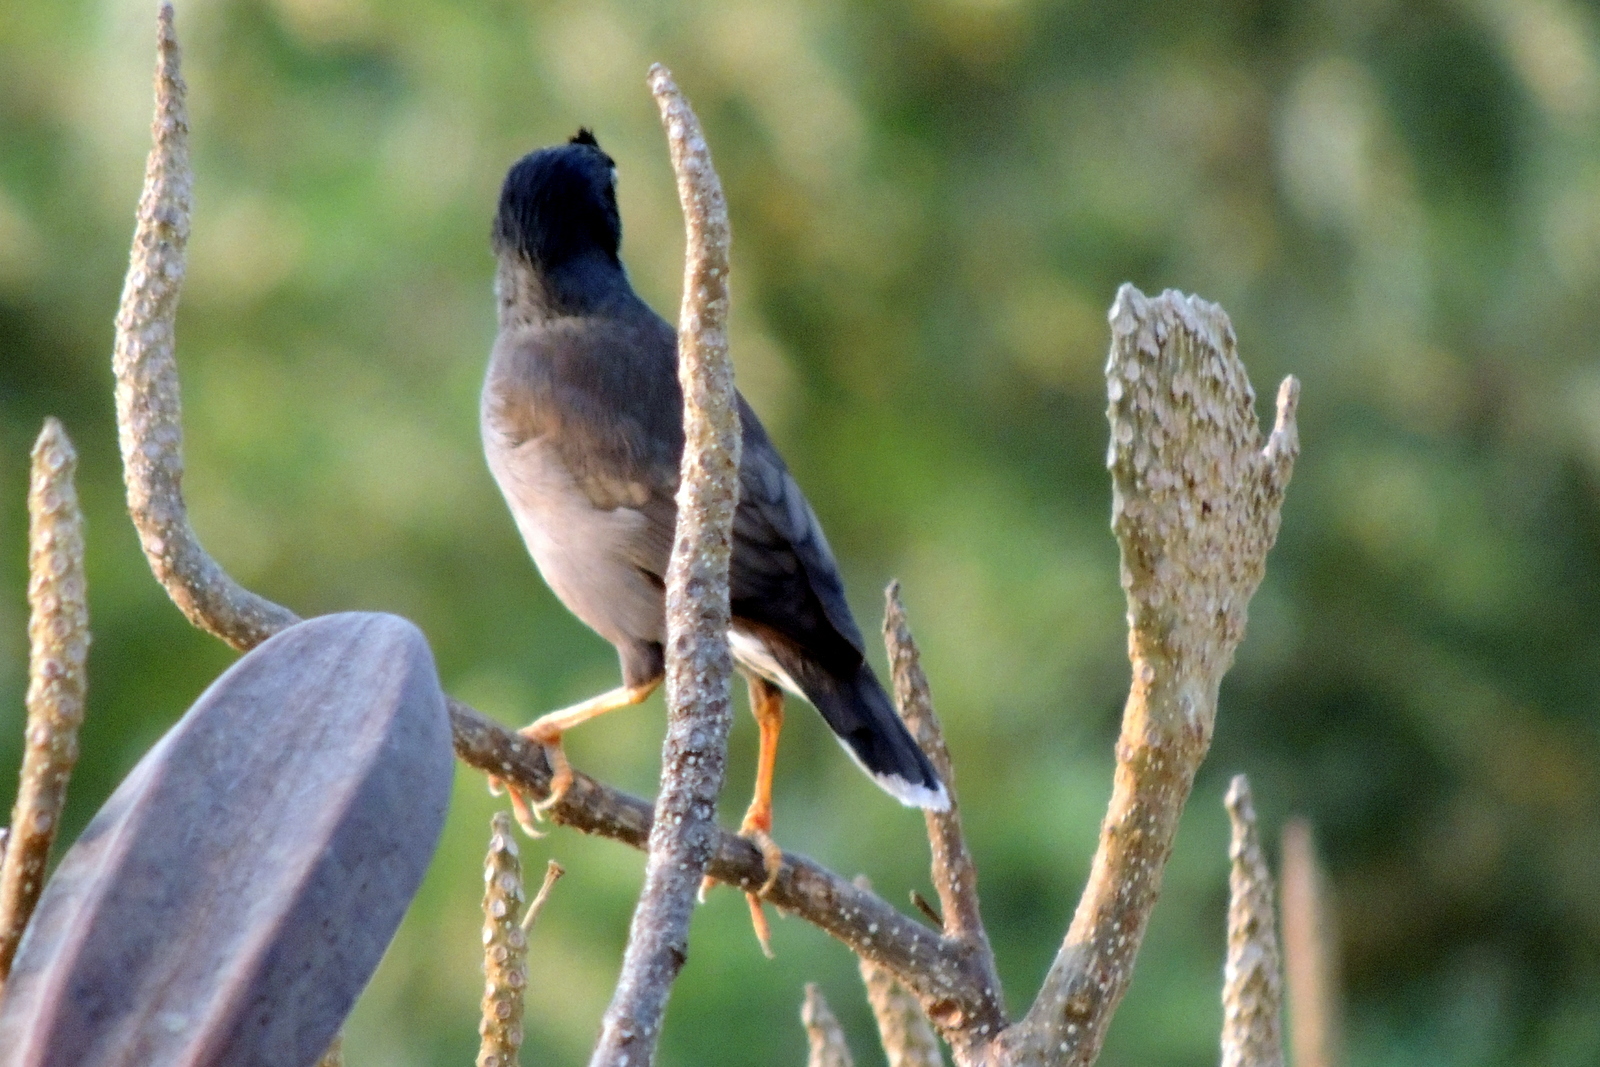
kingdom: Animalia
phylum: Chordata
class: Aves
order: Passeriformes
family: Sturnidae
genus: Acridotheres
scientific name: Acridotheres fuscus
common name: Jungle myna
